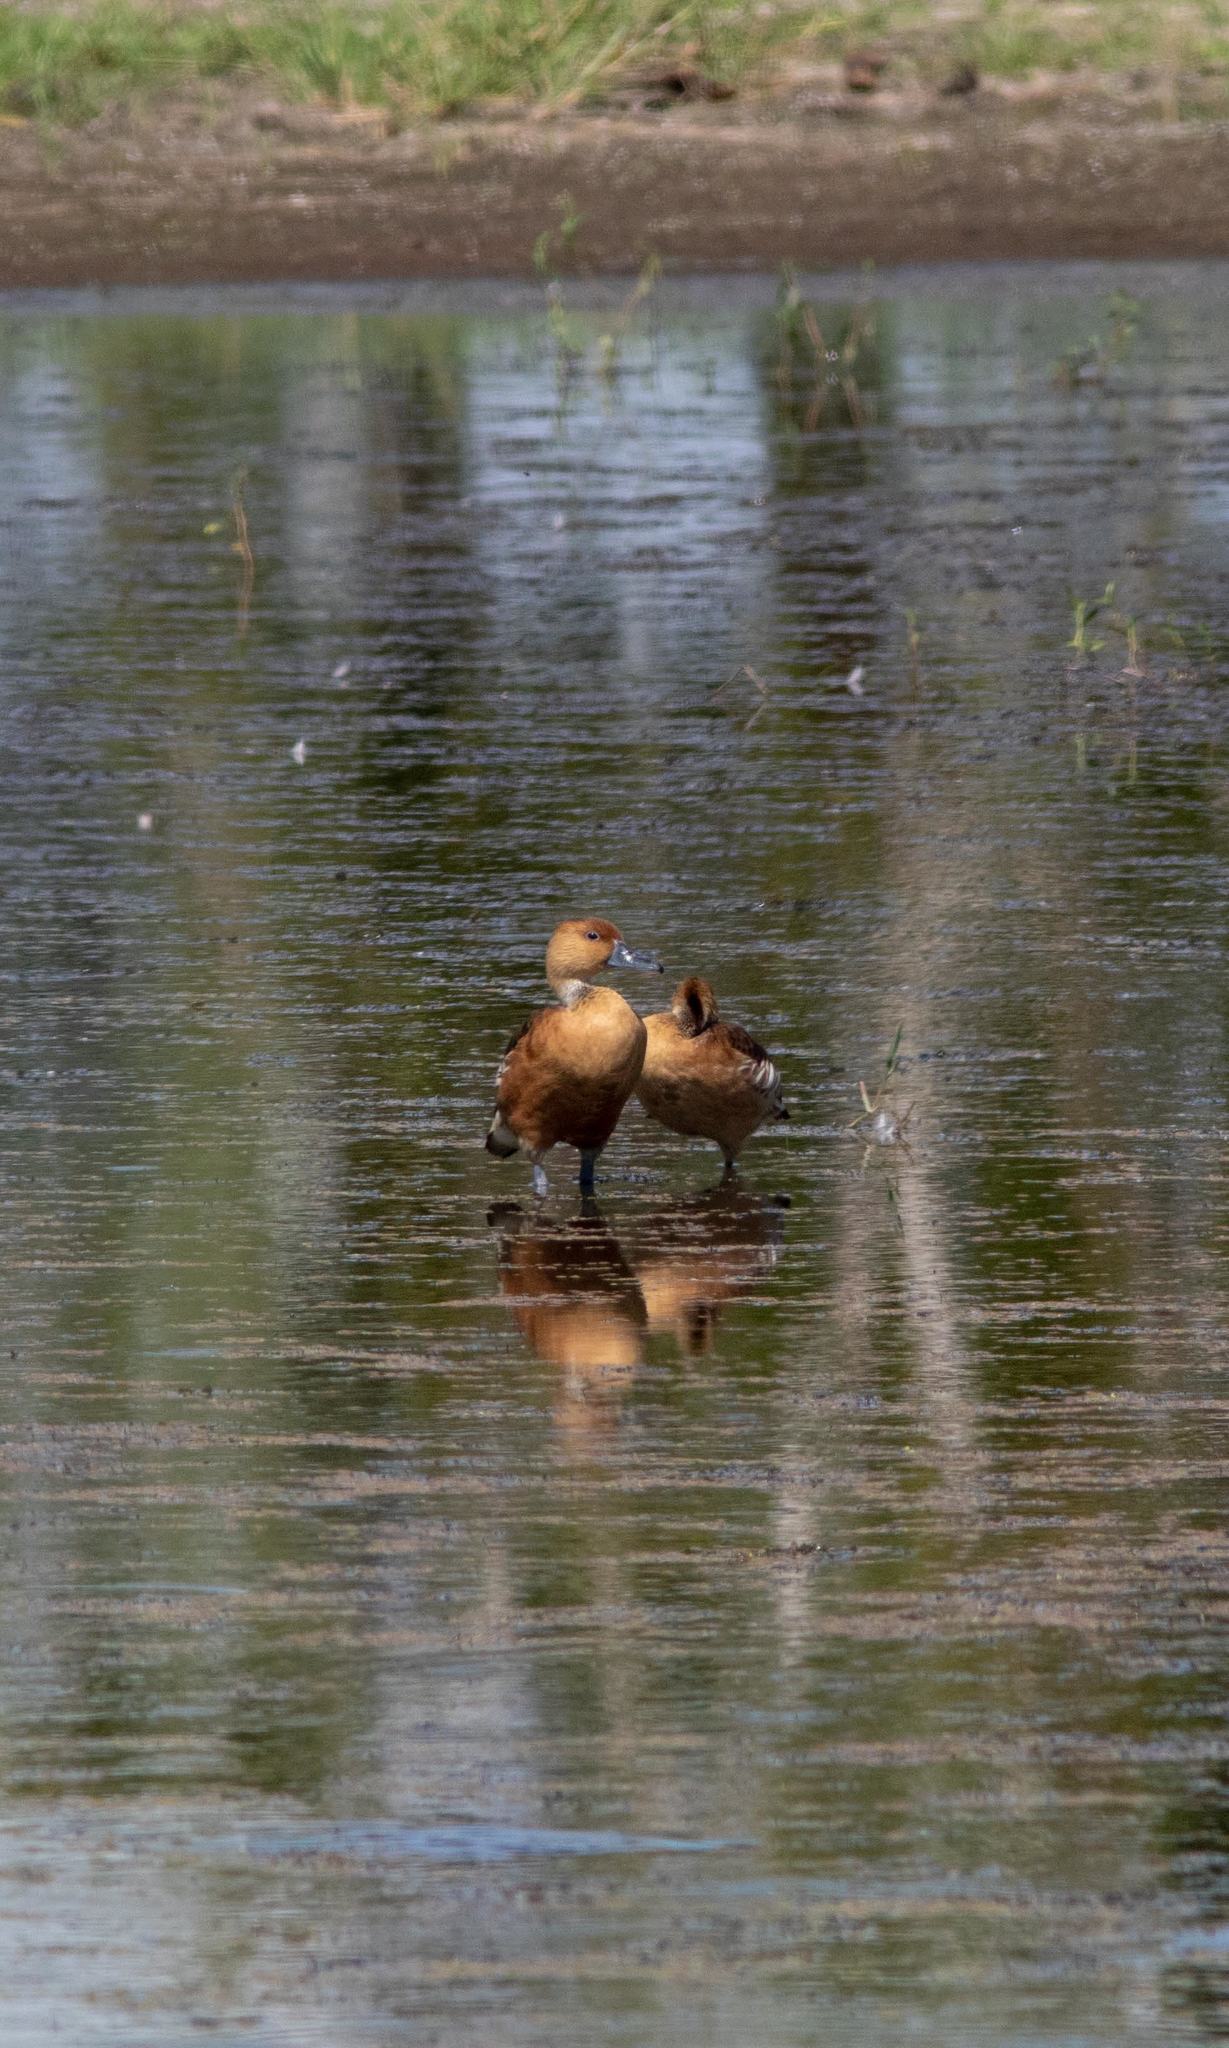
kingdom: Animalia
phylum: Chordata
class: Aves
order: Anseriformes
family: Anatidae
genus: Dendrocygna
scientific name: Dendrocygna bicolor
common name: Fulvous whistling duck
